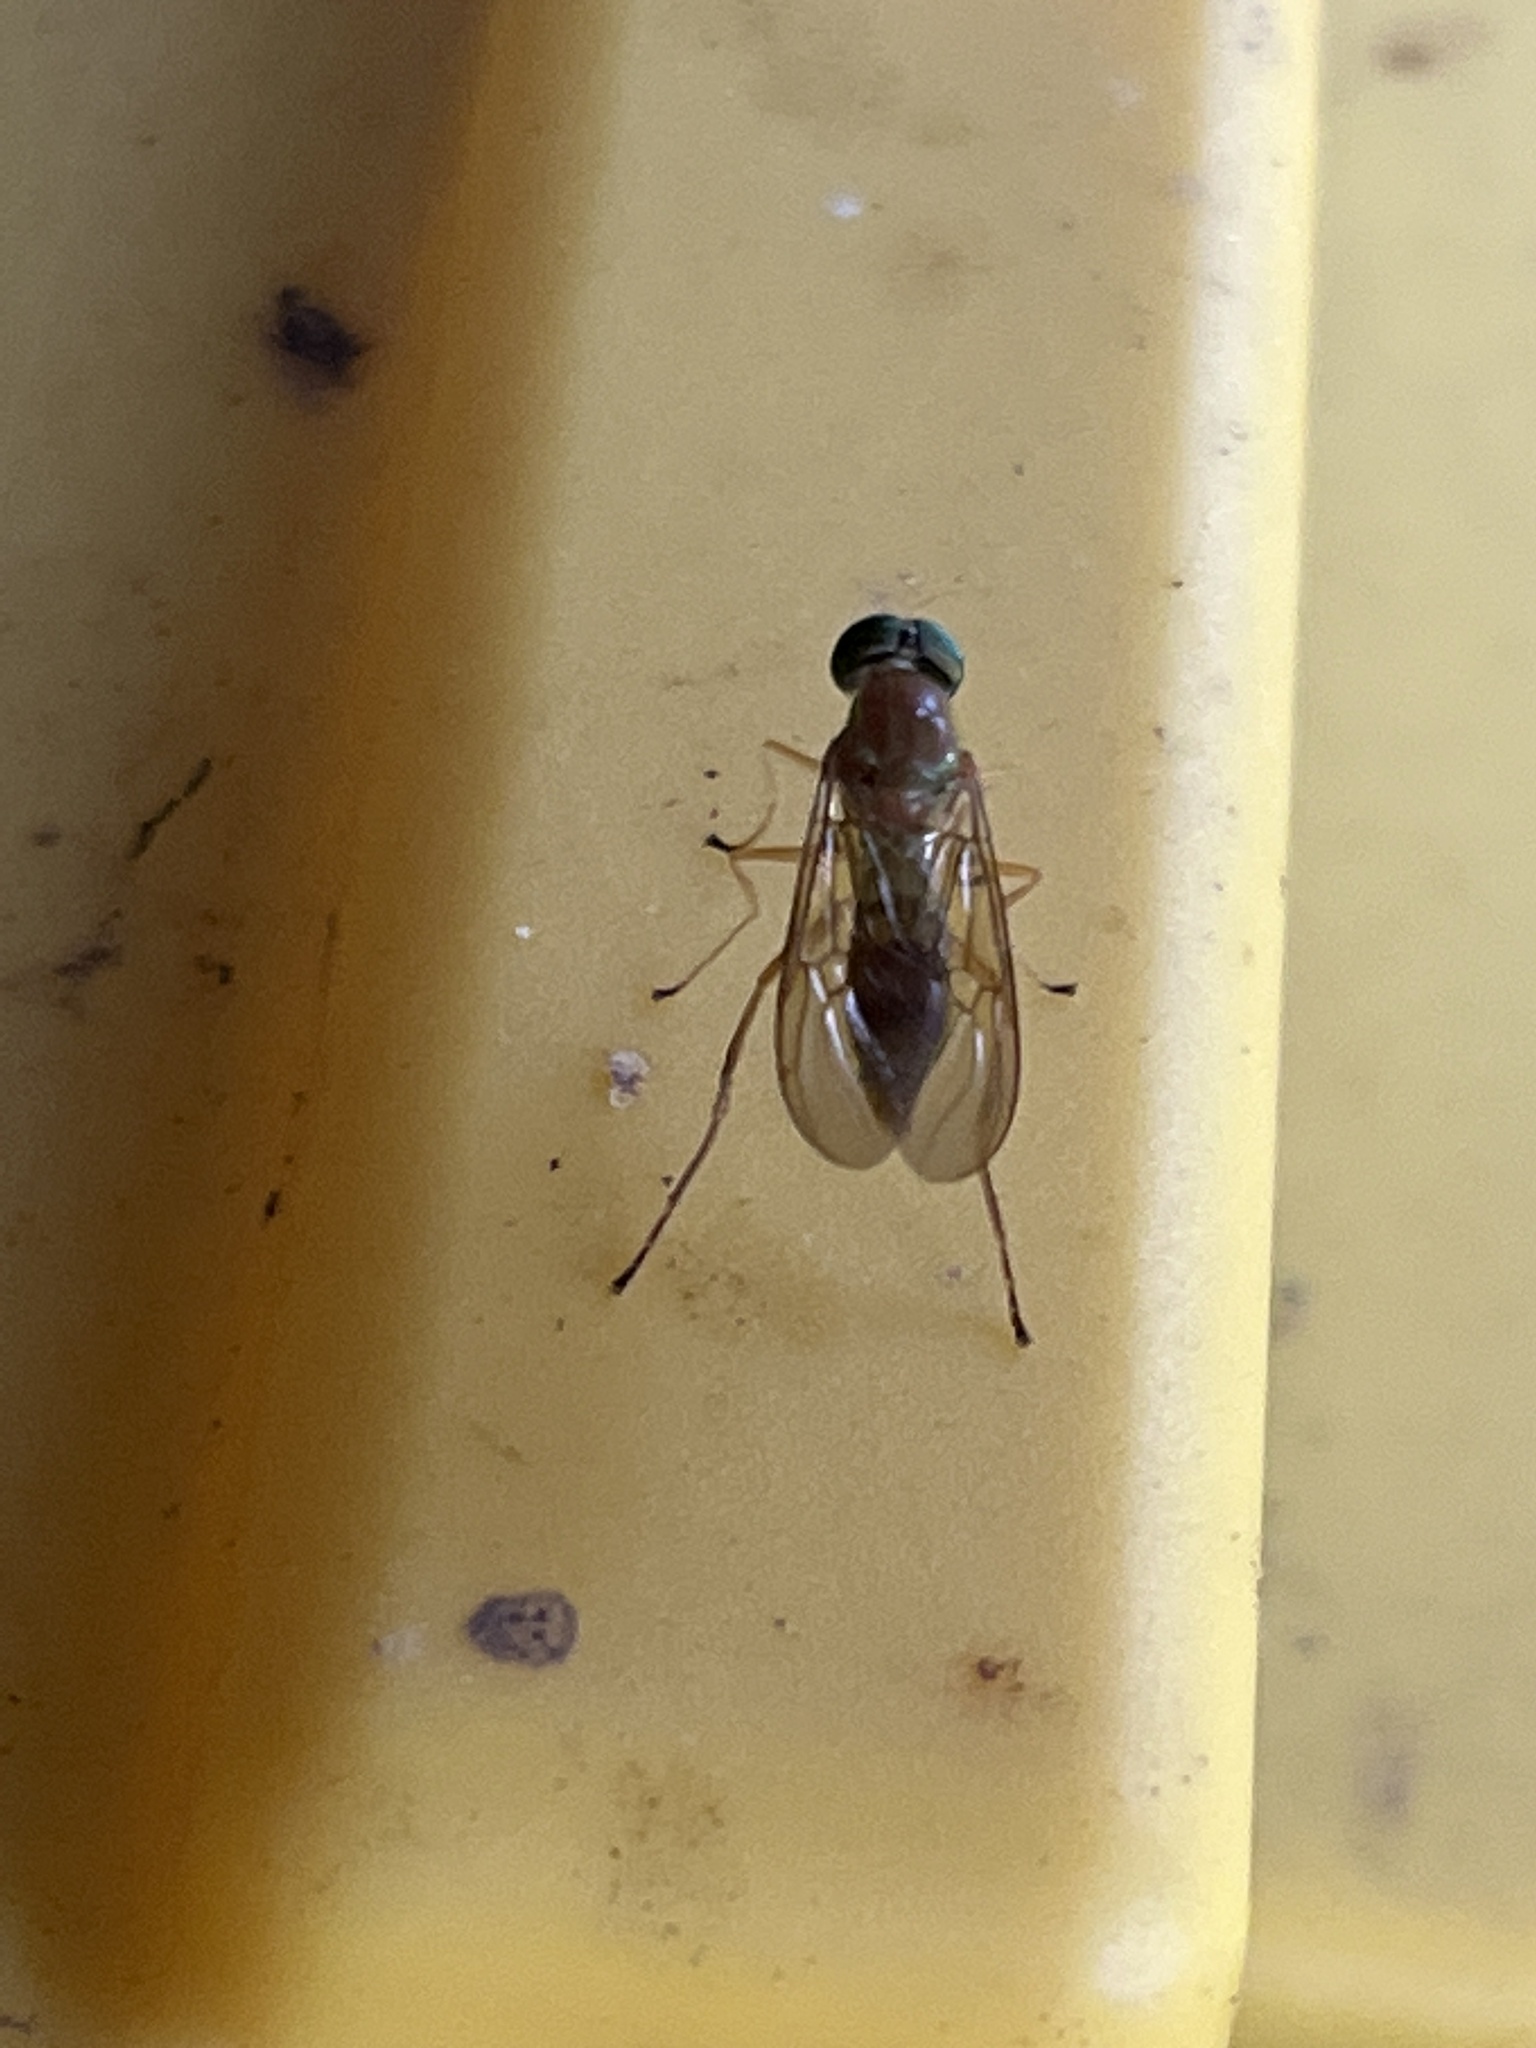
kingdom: Animalia
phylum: Arthropoda
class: Insecta
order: Diptera
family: Stratiomyidae
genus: Ptecticus
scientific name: Ptecticus trivittatus
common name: Compost fly
